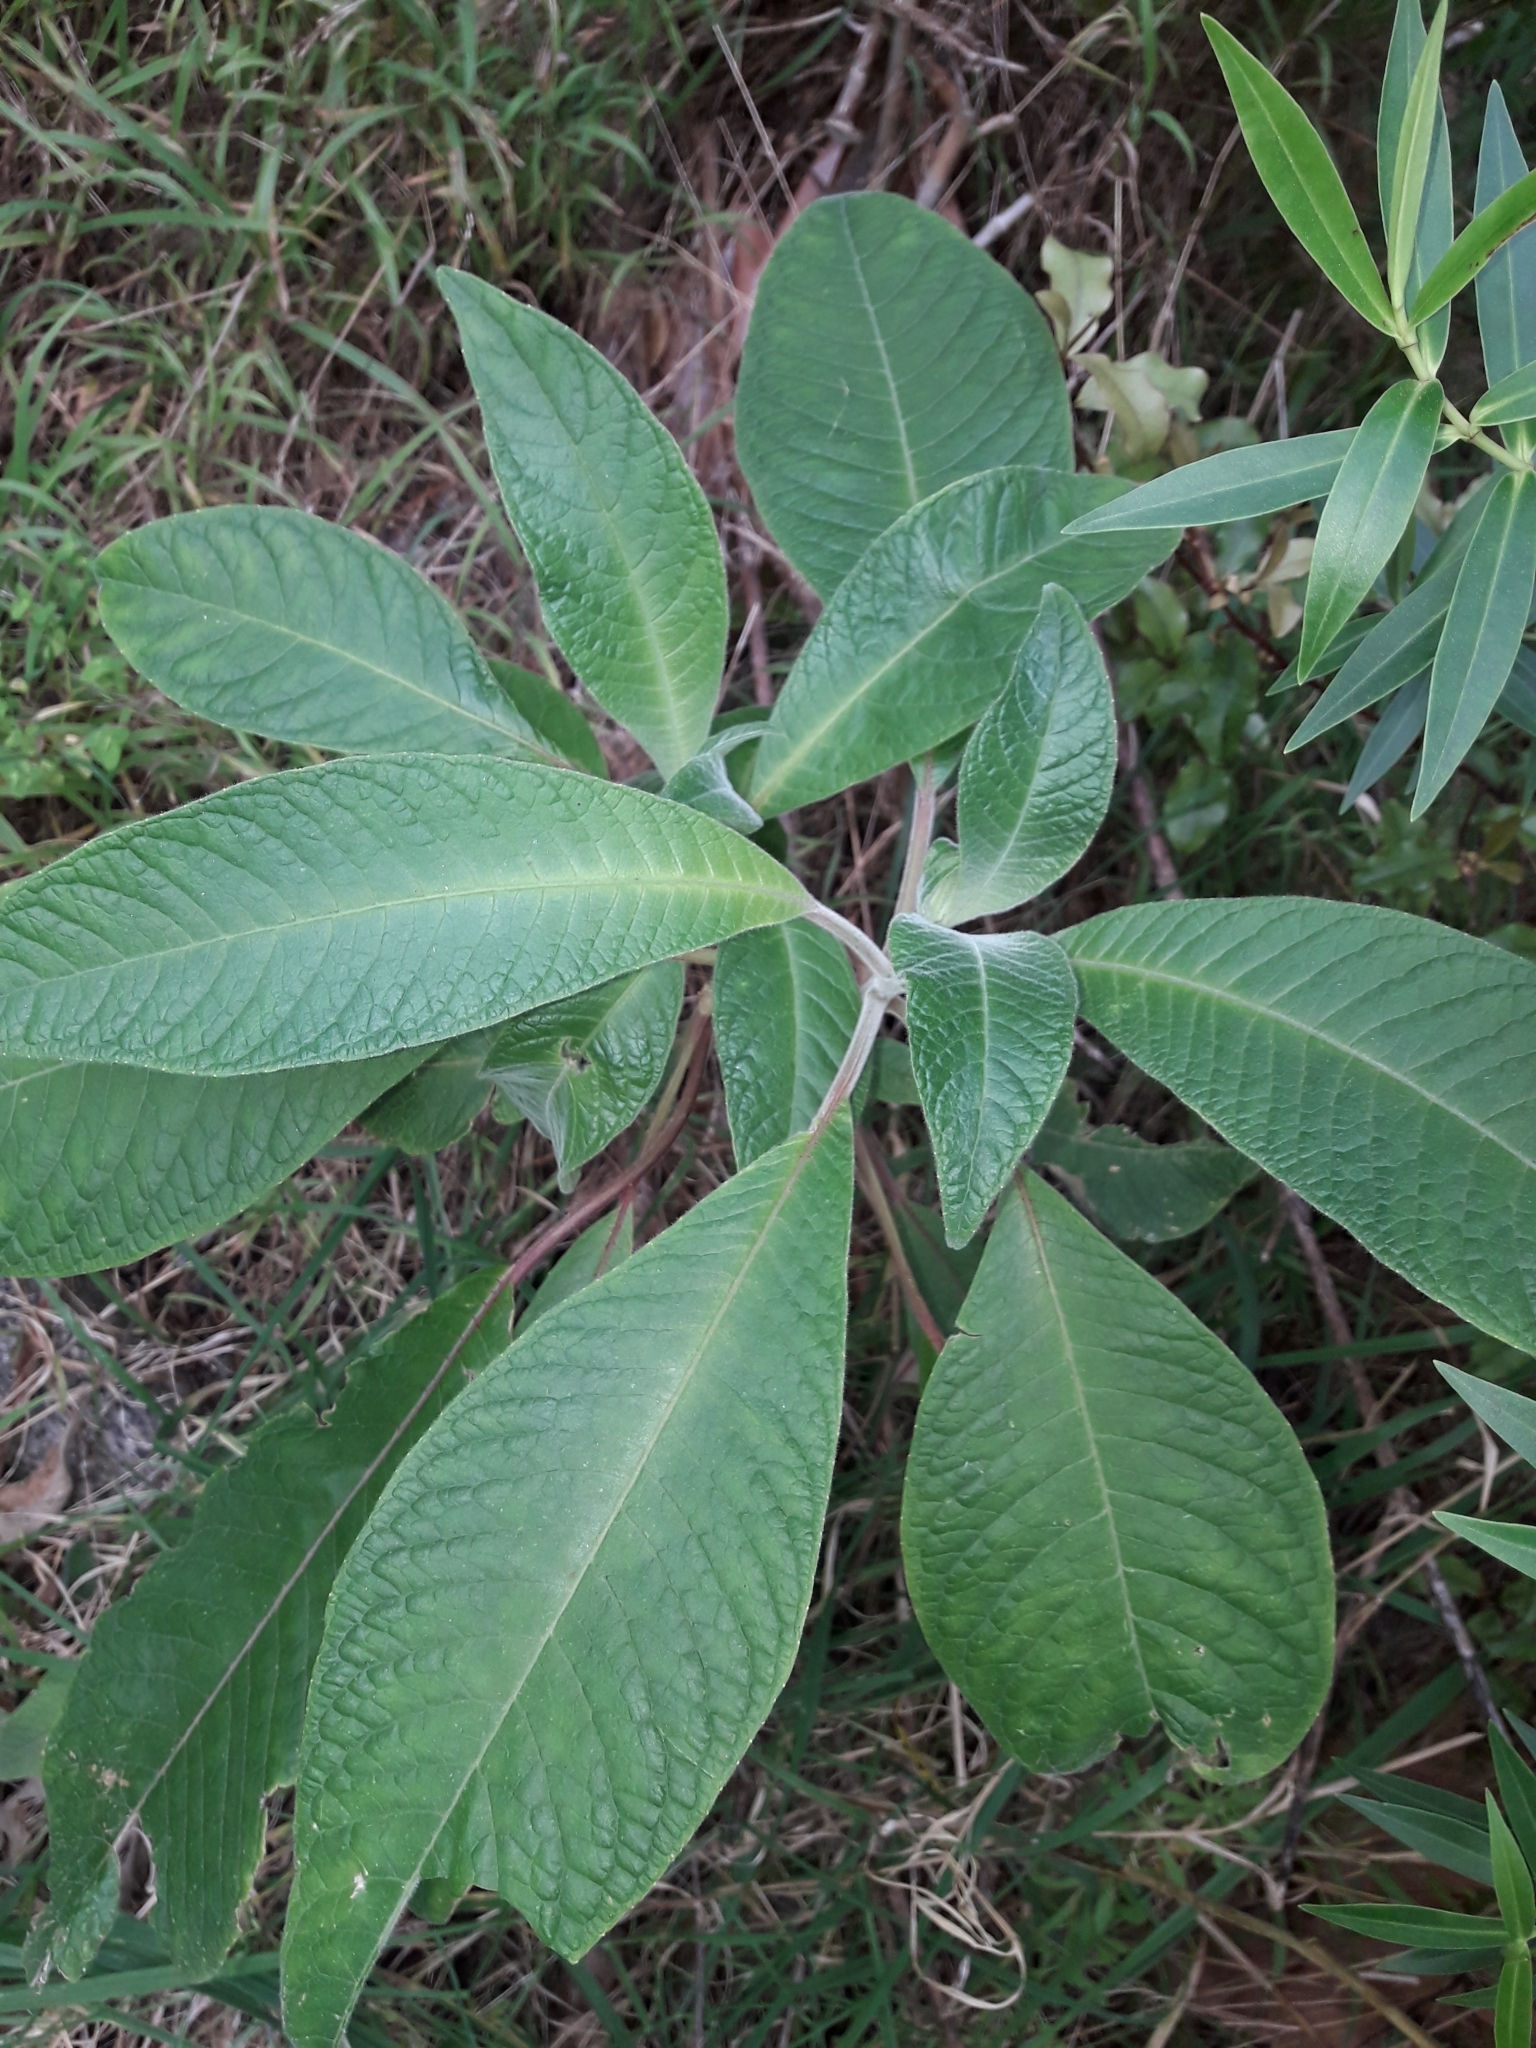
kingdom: Plantae
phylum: Tracheophyta
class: Magnoliopsida
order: Myrtales
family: Onagraceae
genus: Fuchsia
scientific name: Fuchsia boliviana
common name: Bolivian fuchsia
